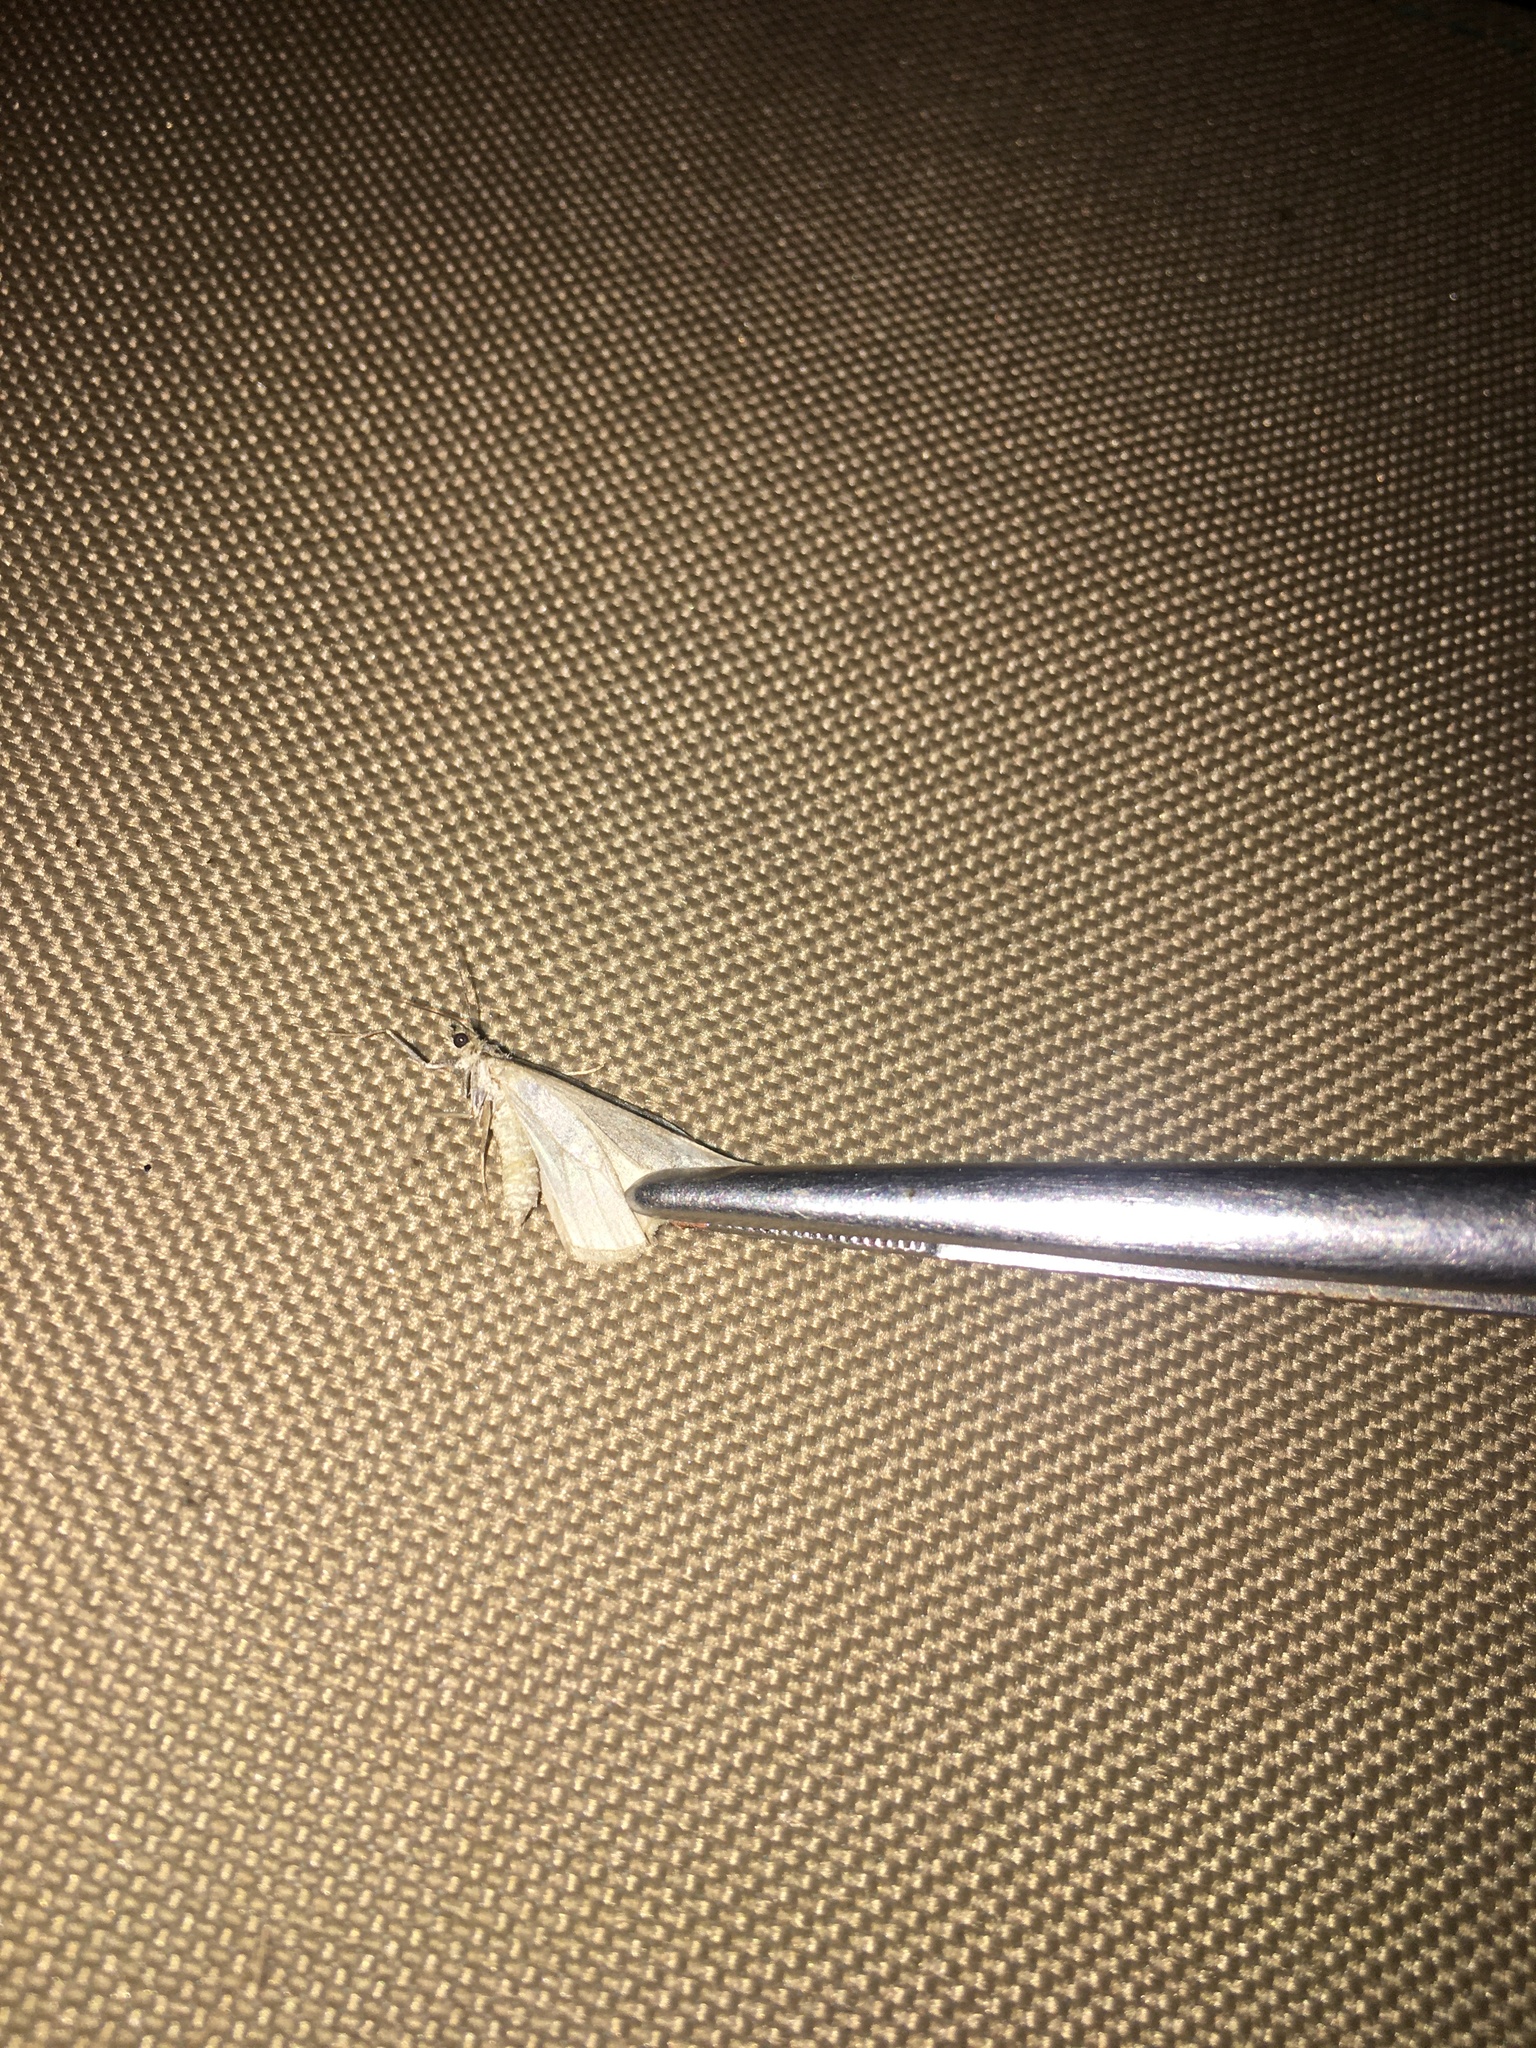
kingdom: Animalia
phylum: Arthropoda
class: Insecta
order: Lepidoptera
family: Geometridae
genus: Dysstroma
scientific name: Dysstroma citrata
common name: Dark marbled carpet
